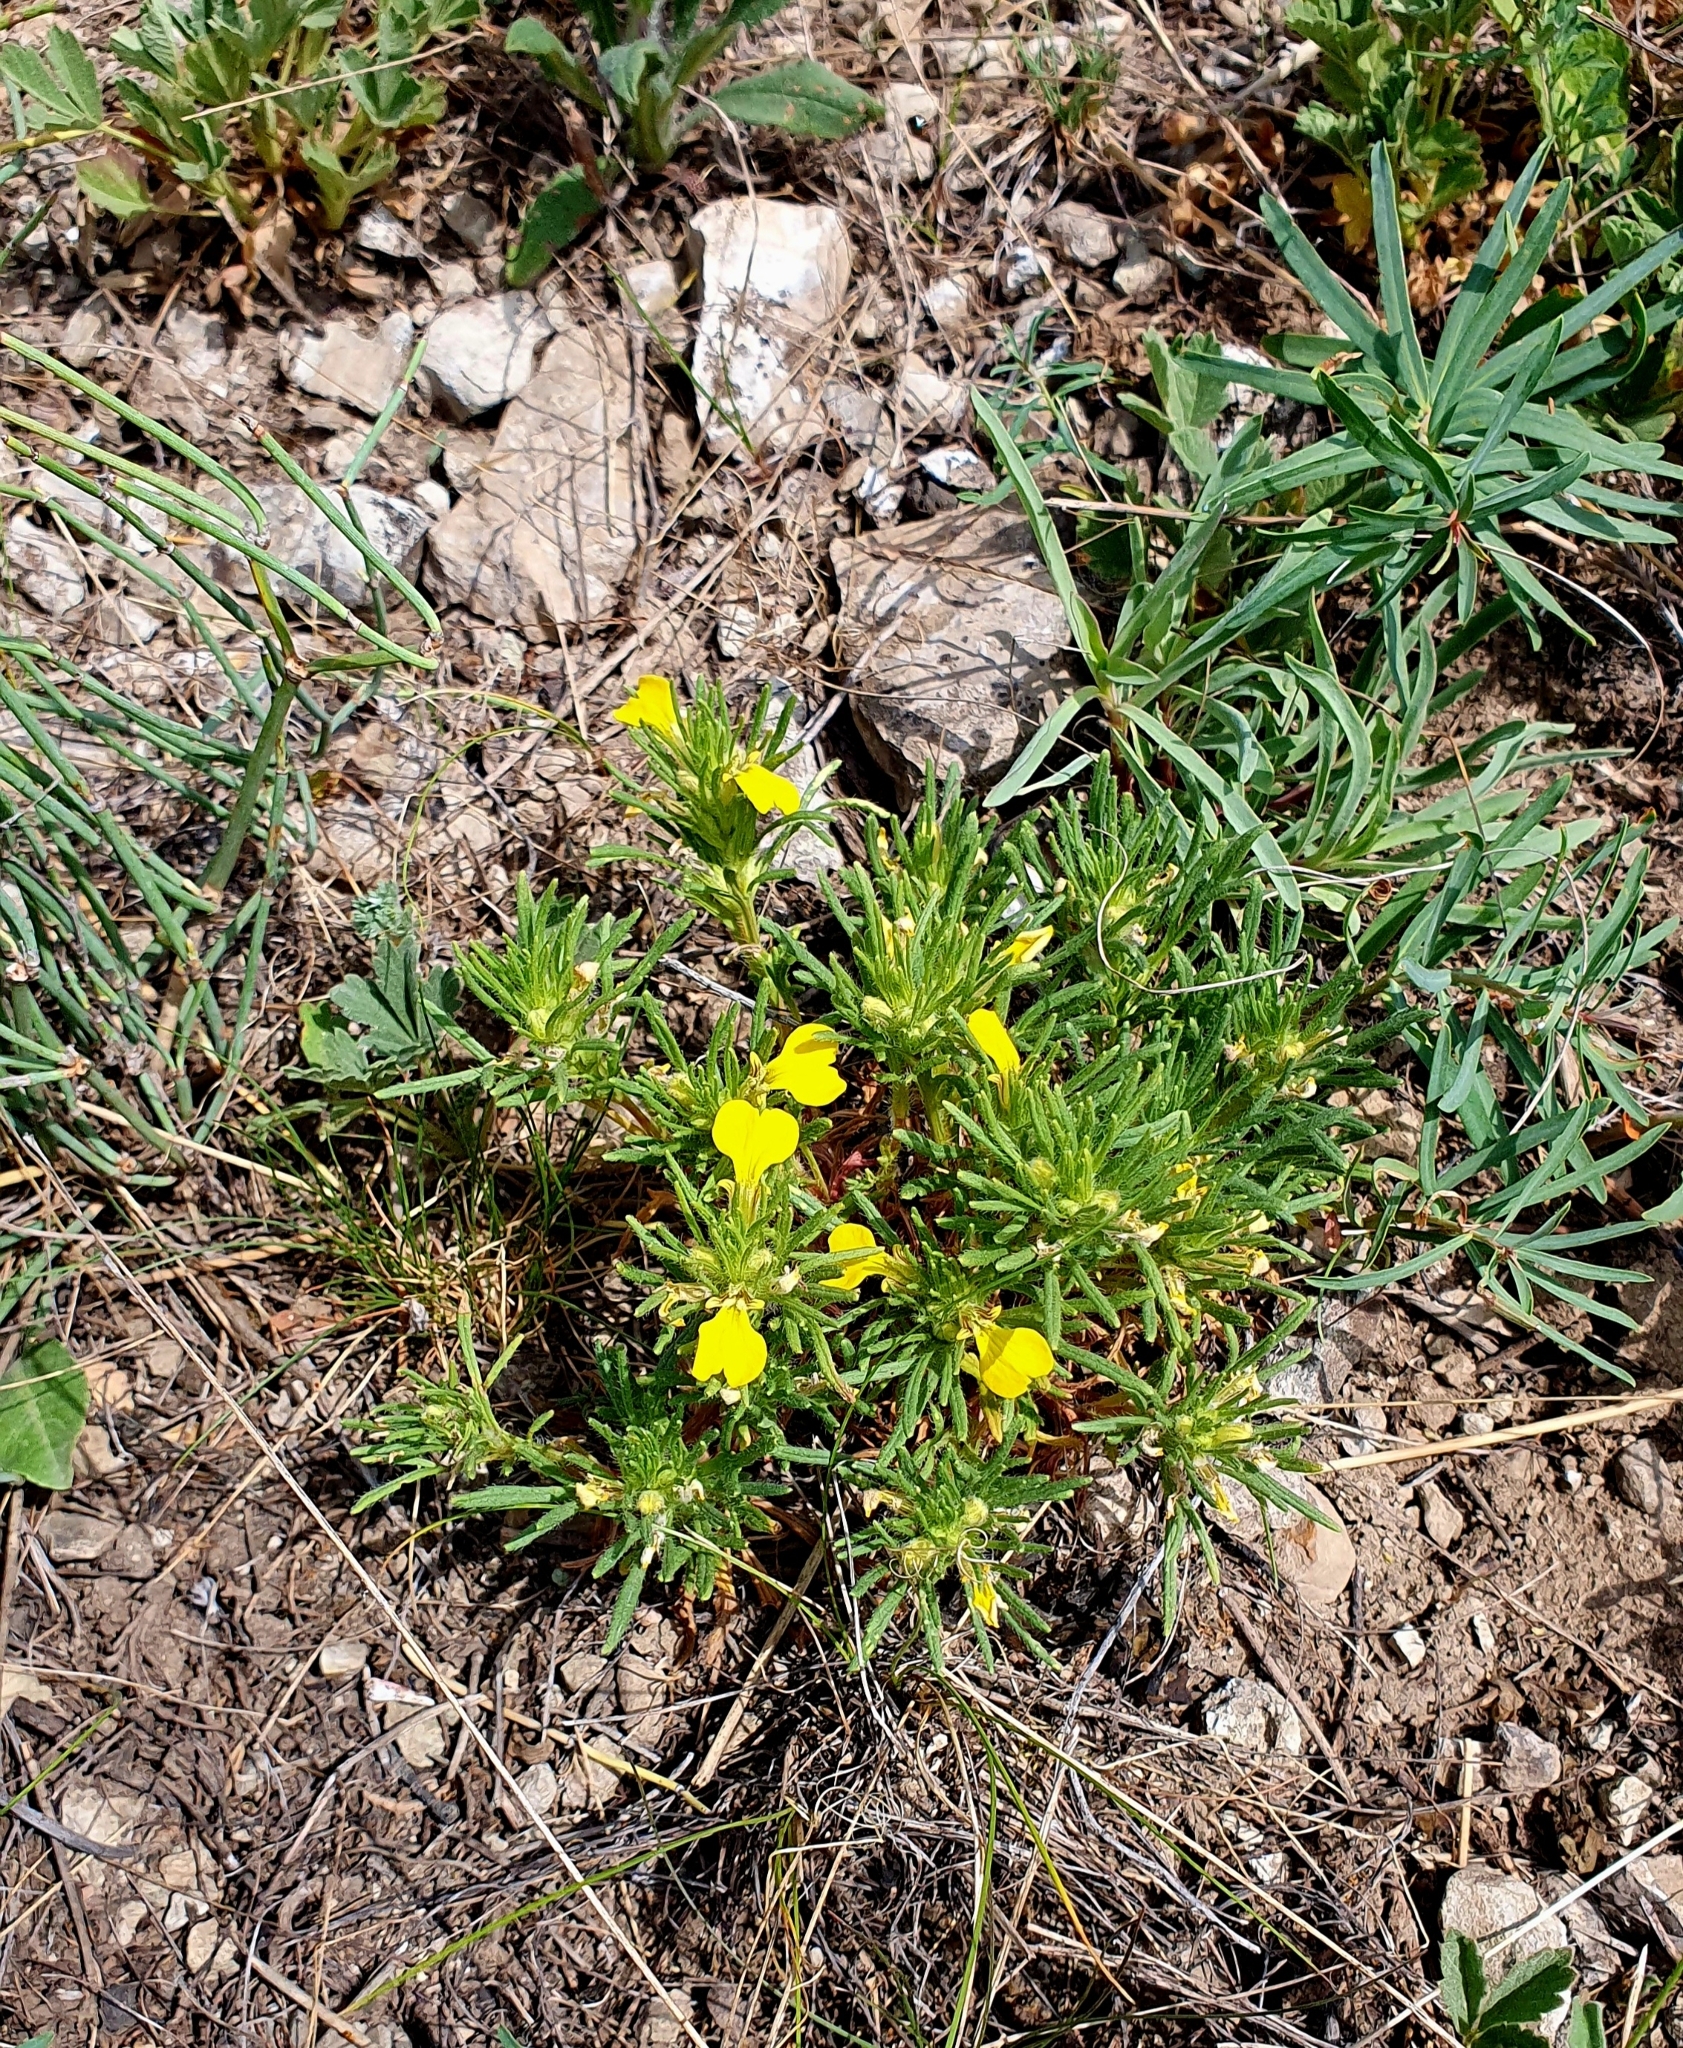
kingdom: Plantae
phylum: Tracheophyta
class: Magnoliopsida
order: Lamiales
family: Lamiaceae
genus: Ajuga
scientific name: Ajuga chamaepitys
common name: Ground-pine
